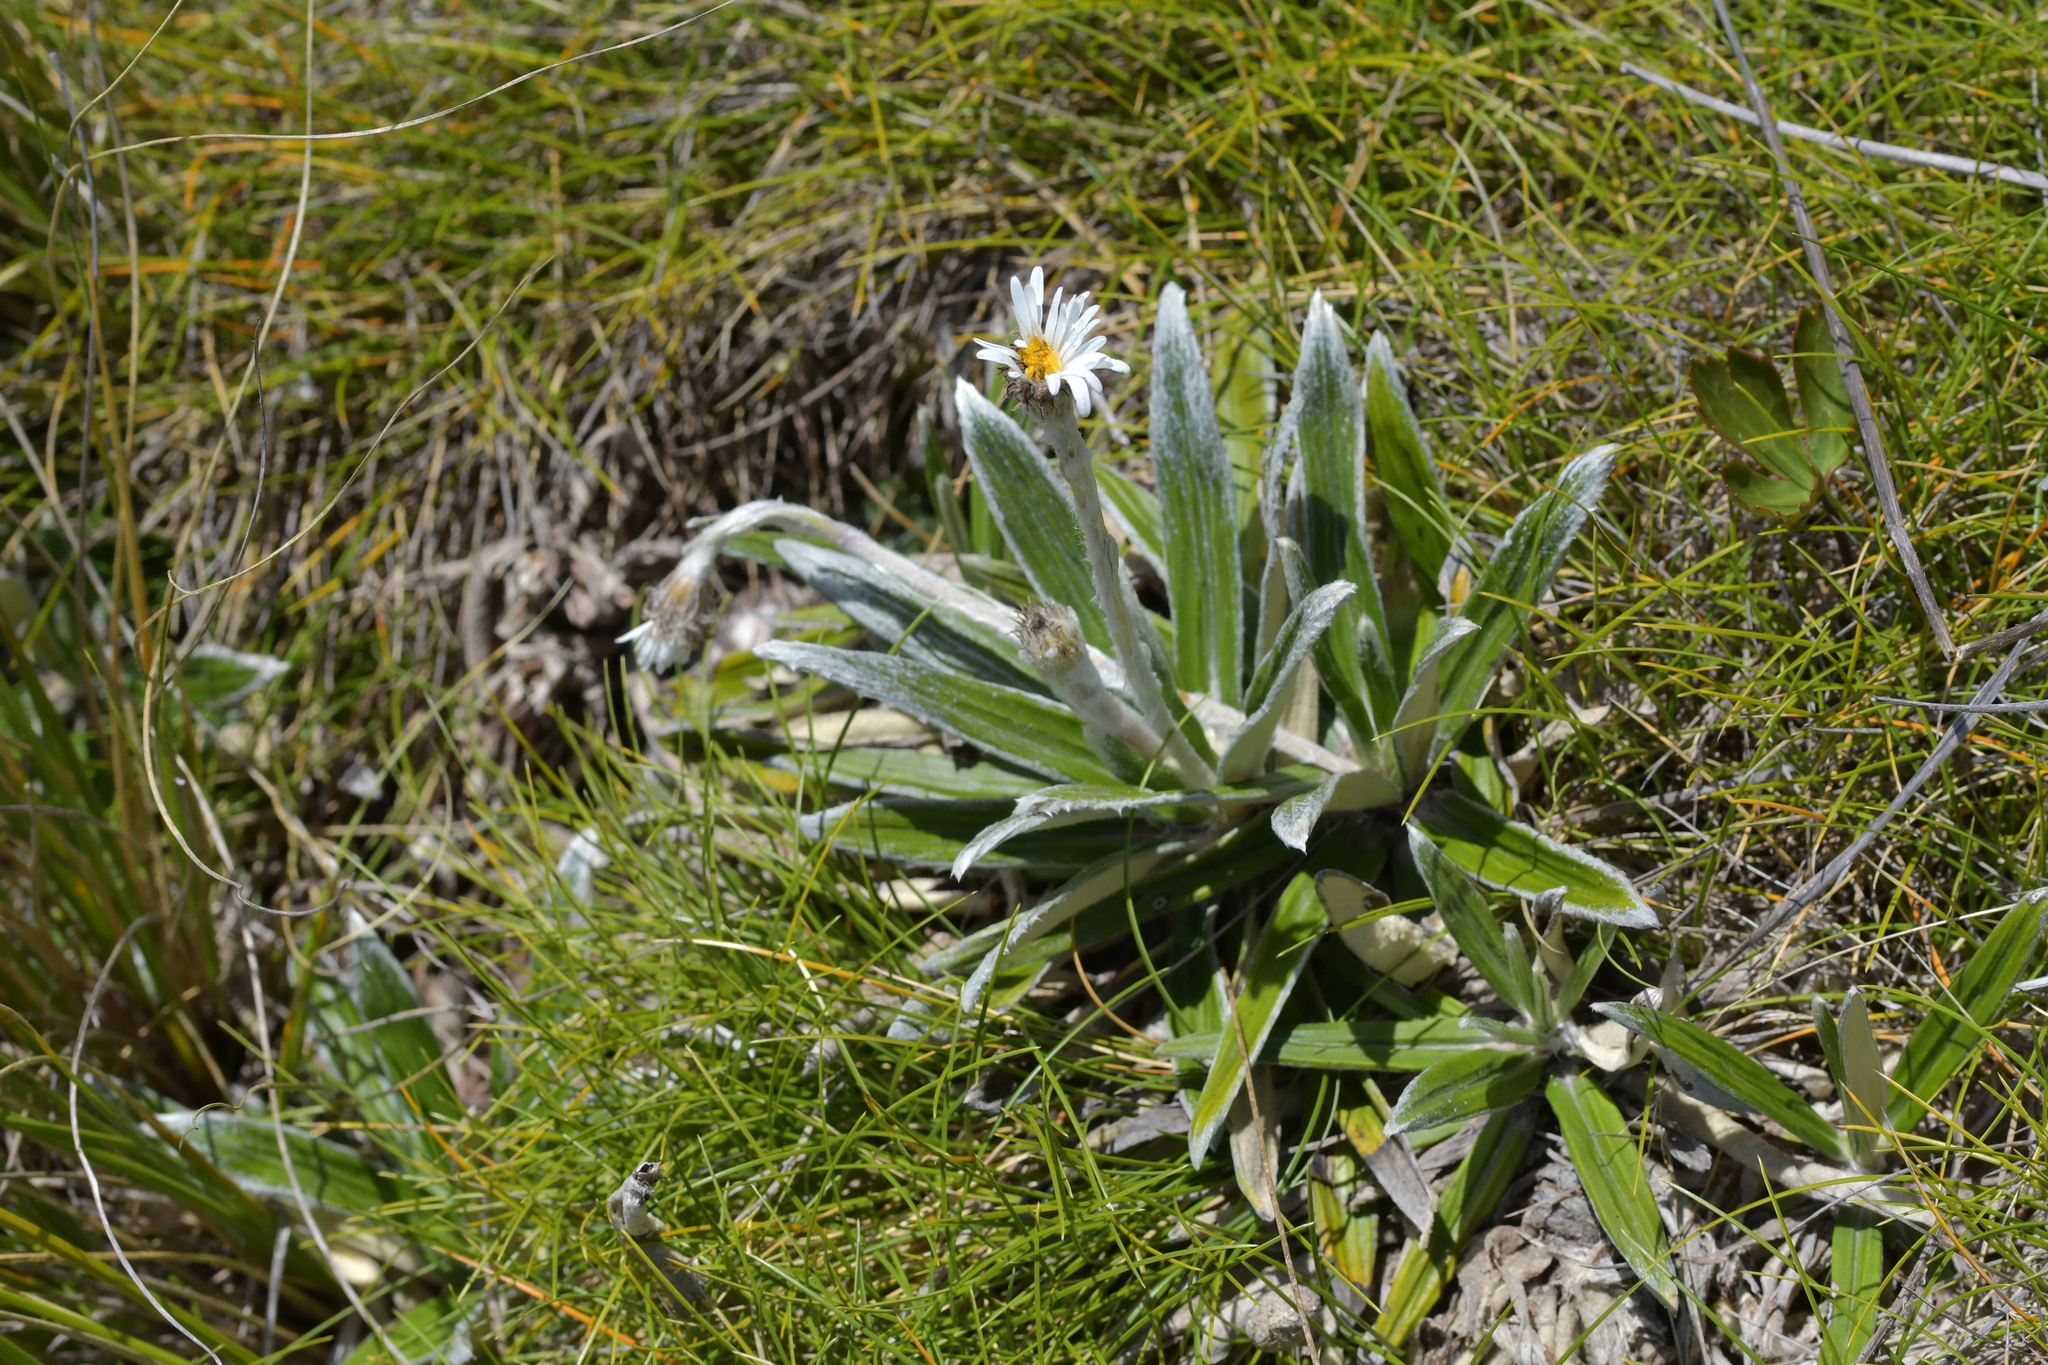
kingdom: Plantae
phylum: Tracheophyta
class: Magnoliopsida
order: Asterales
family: Asteraceae
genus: Celmisia
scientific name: Celmisia semicordata
